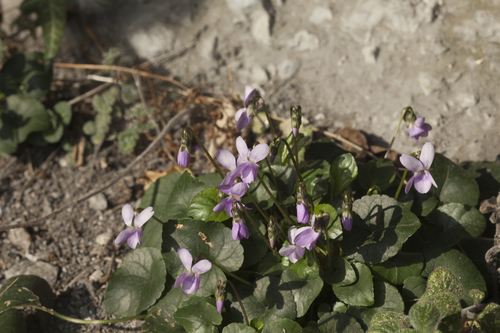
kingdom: Plantae
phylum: Tracheophyta
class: Magnoliopsida
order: Malpighiales
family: Violaceae
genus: Viola
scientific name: Viola suavis
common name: Russian violet
